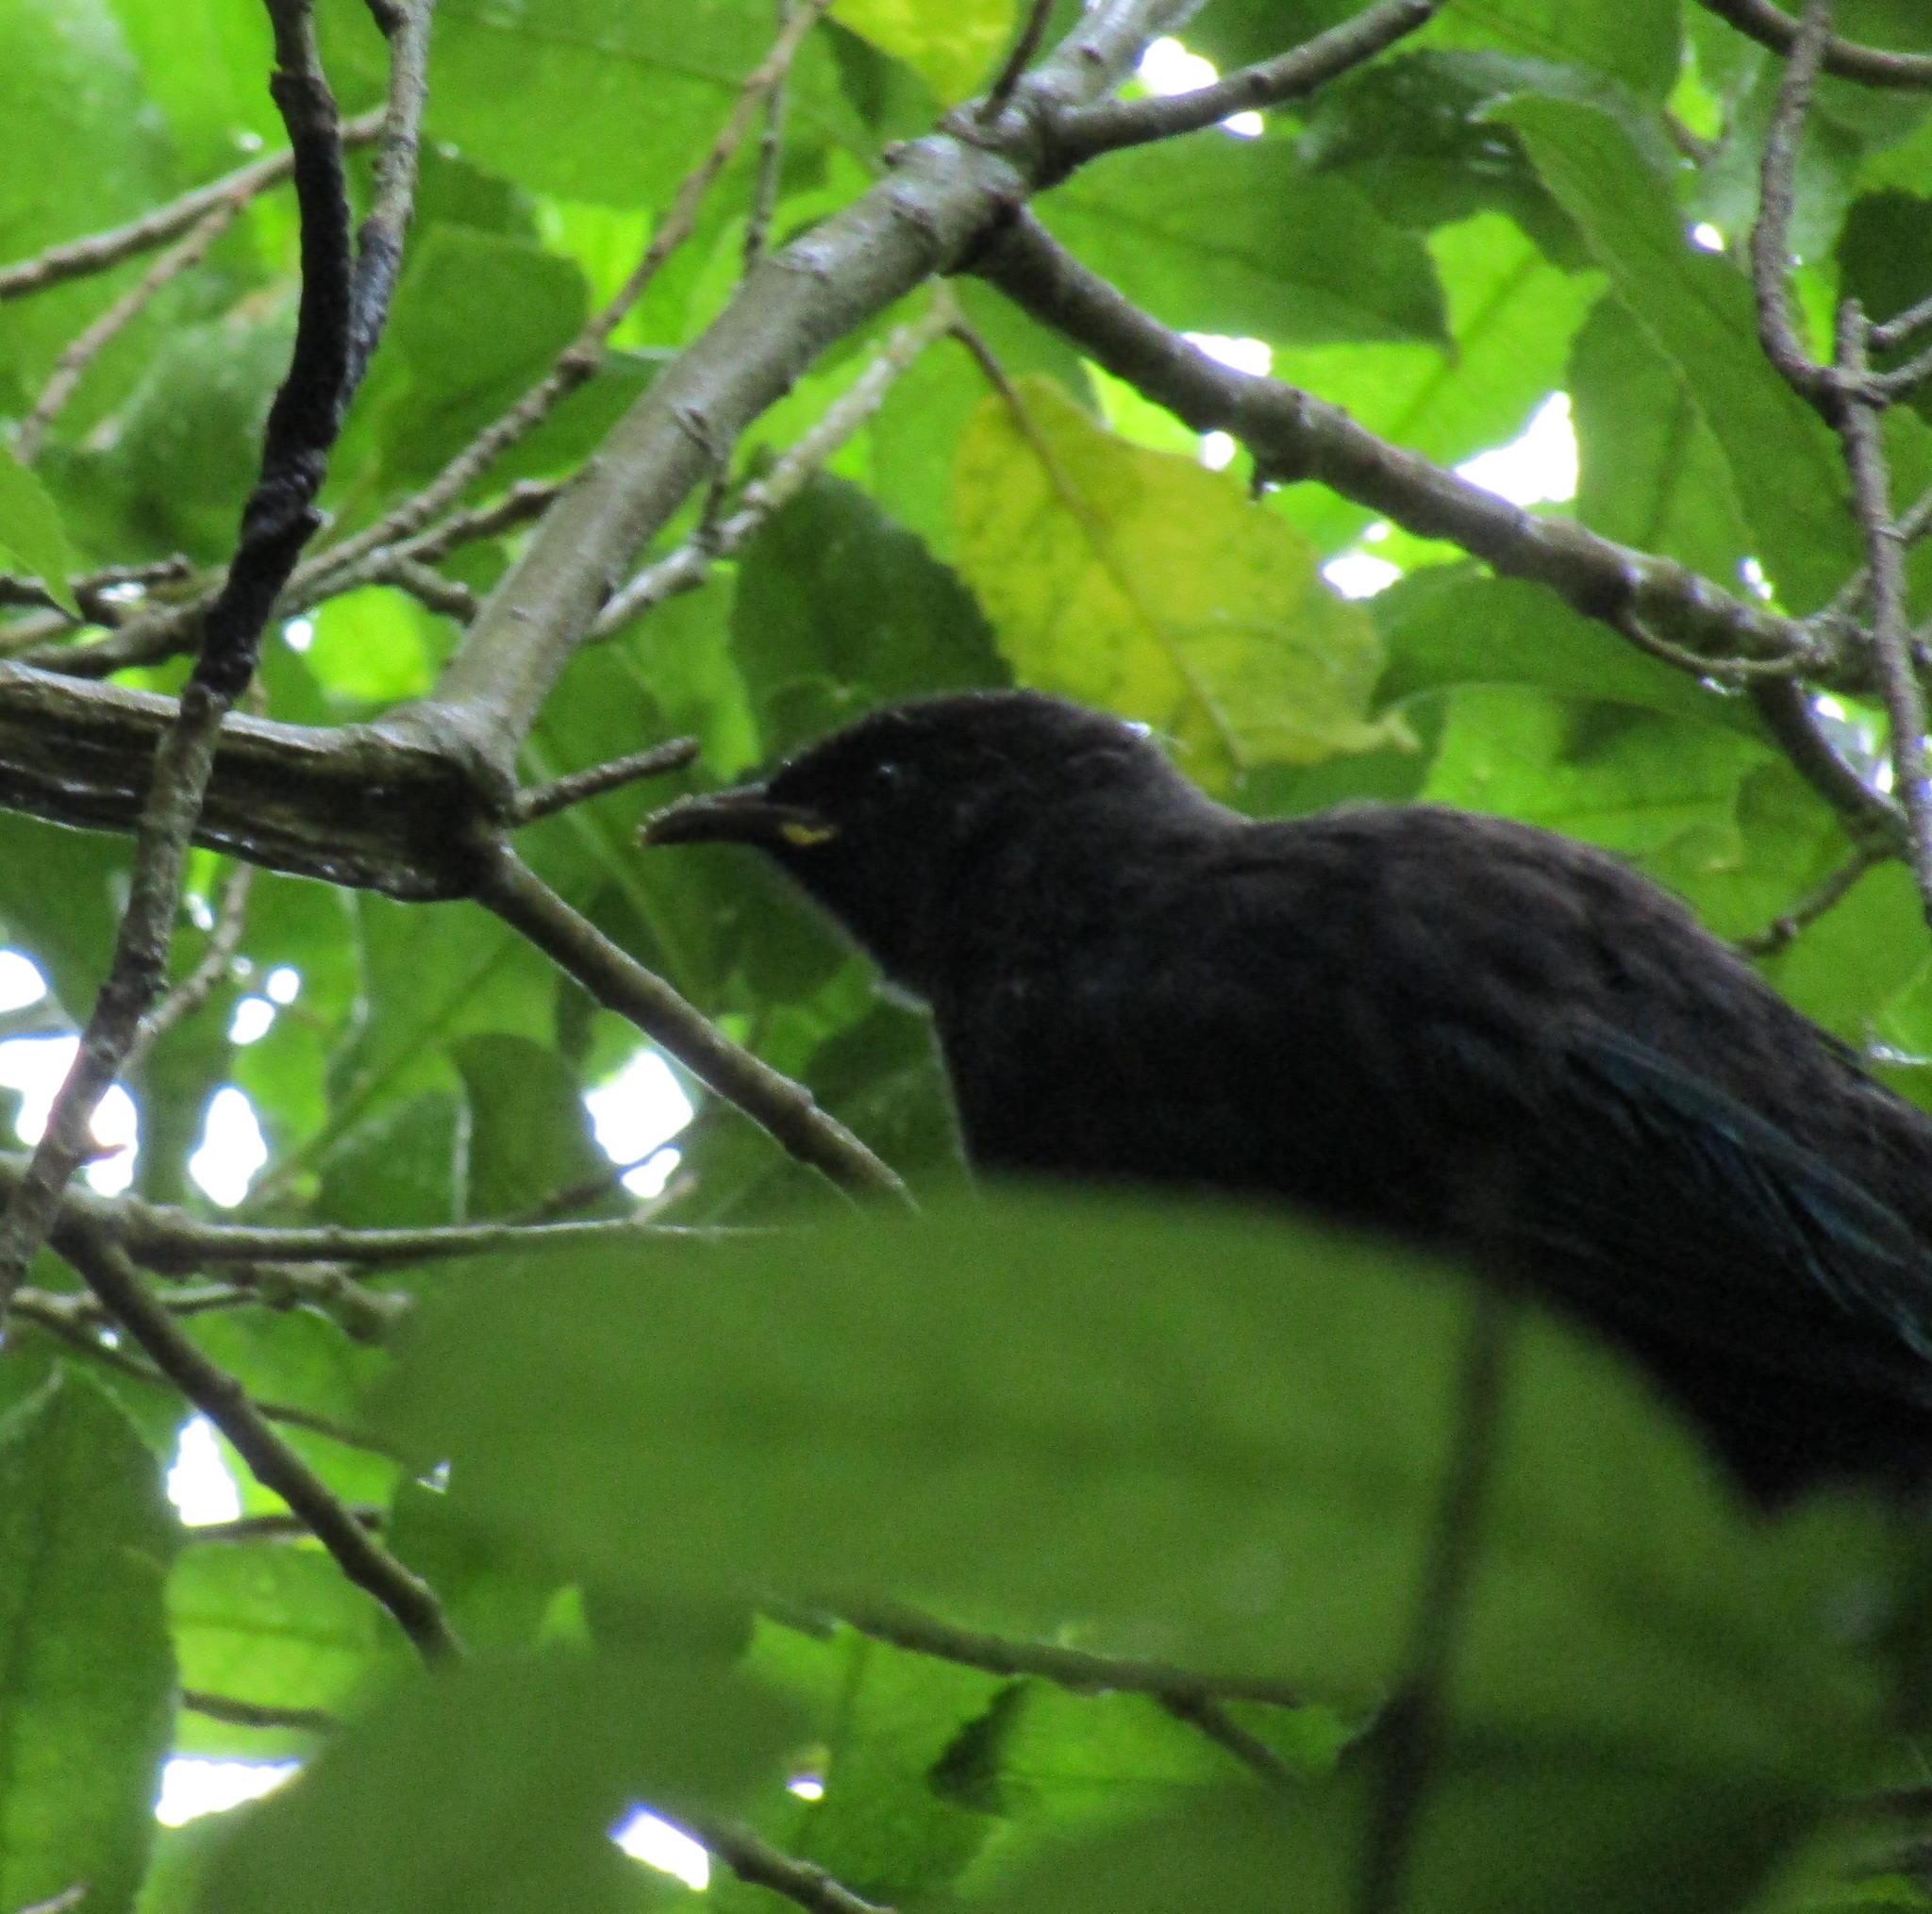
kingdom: Animalia
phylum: Chordata
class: Aves
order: Passeriformes
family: Meliphagidae
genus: Prosthemadera
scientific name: Prosthemadera novaeseelandiae
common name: Tui
